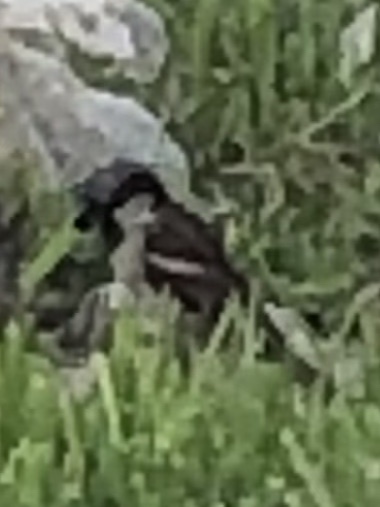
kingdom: Animalia
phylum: Chordata
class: Aves
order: Passeriformes
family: Passeridae
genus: Passer
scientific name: Passer domesticus
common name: House sparrow
